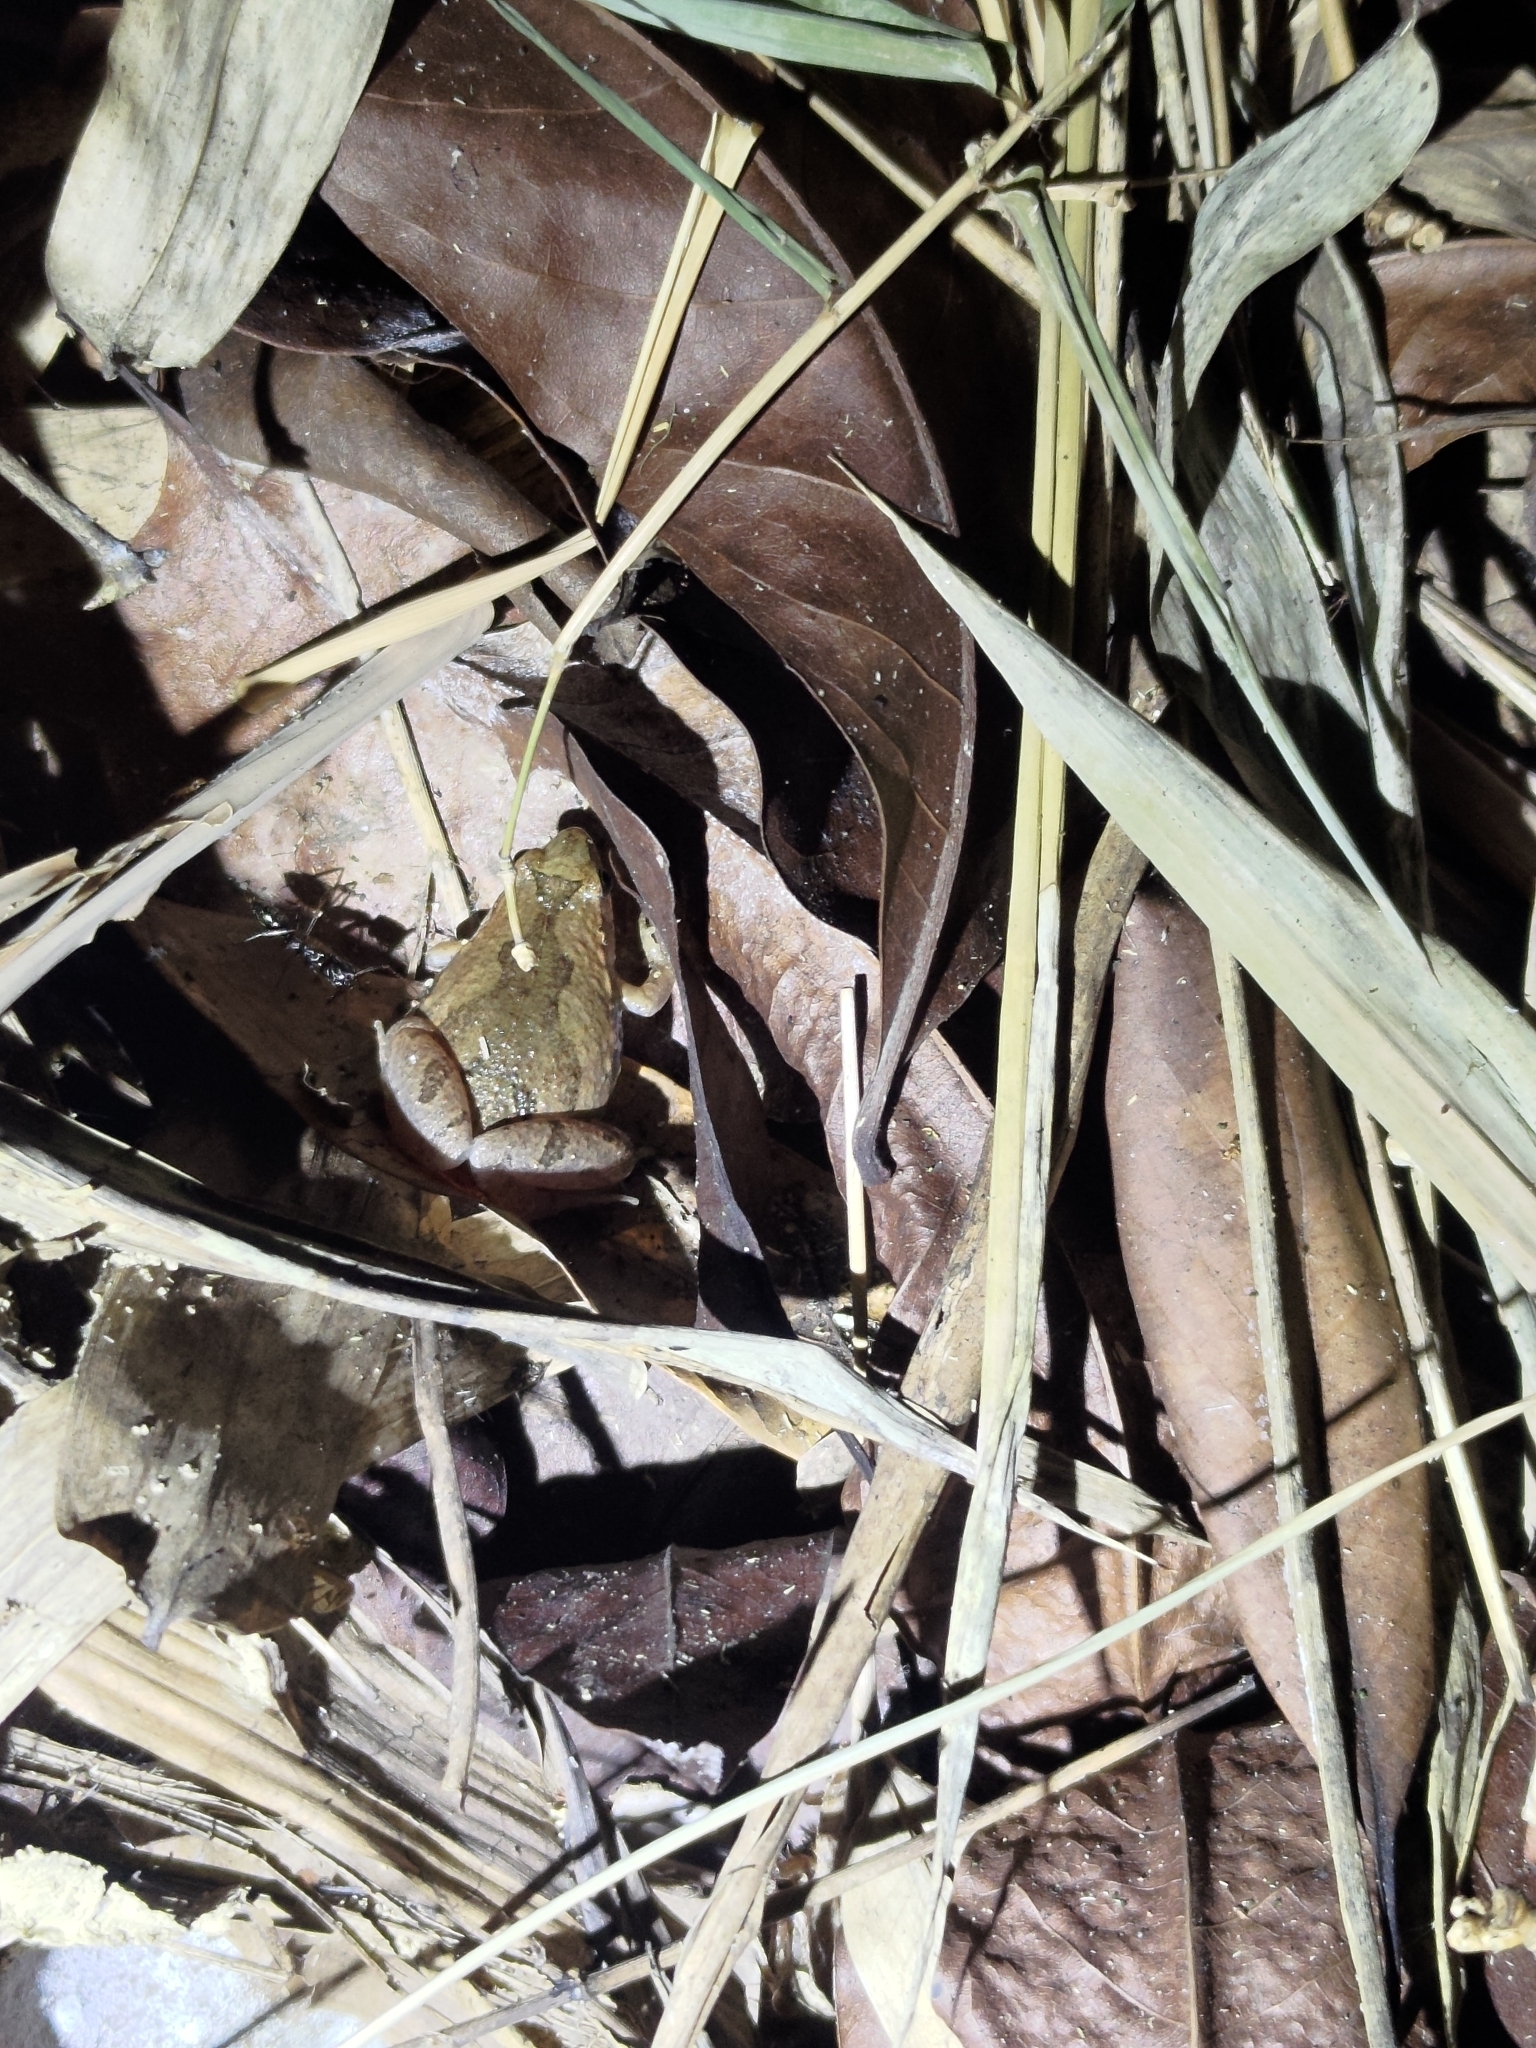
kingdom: Animalia
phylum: Chordata
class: Amphibia
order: Anura
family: Microhylidae
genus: Microhyla
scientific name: Microhyla fissipes
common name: Ornate narrow-mouthed frog
